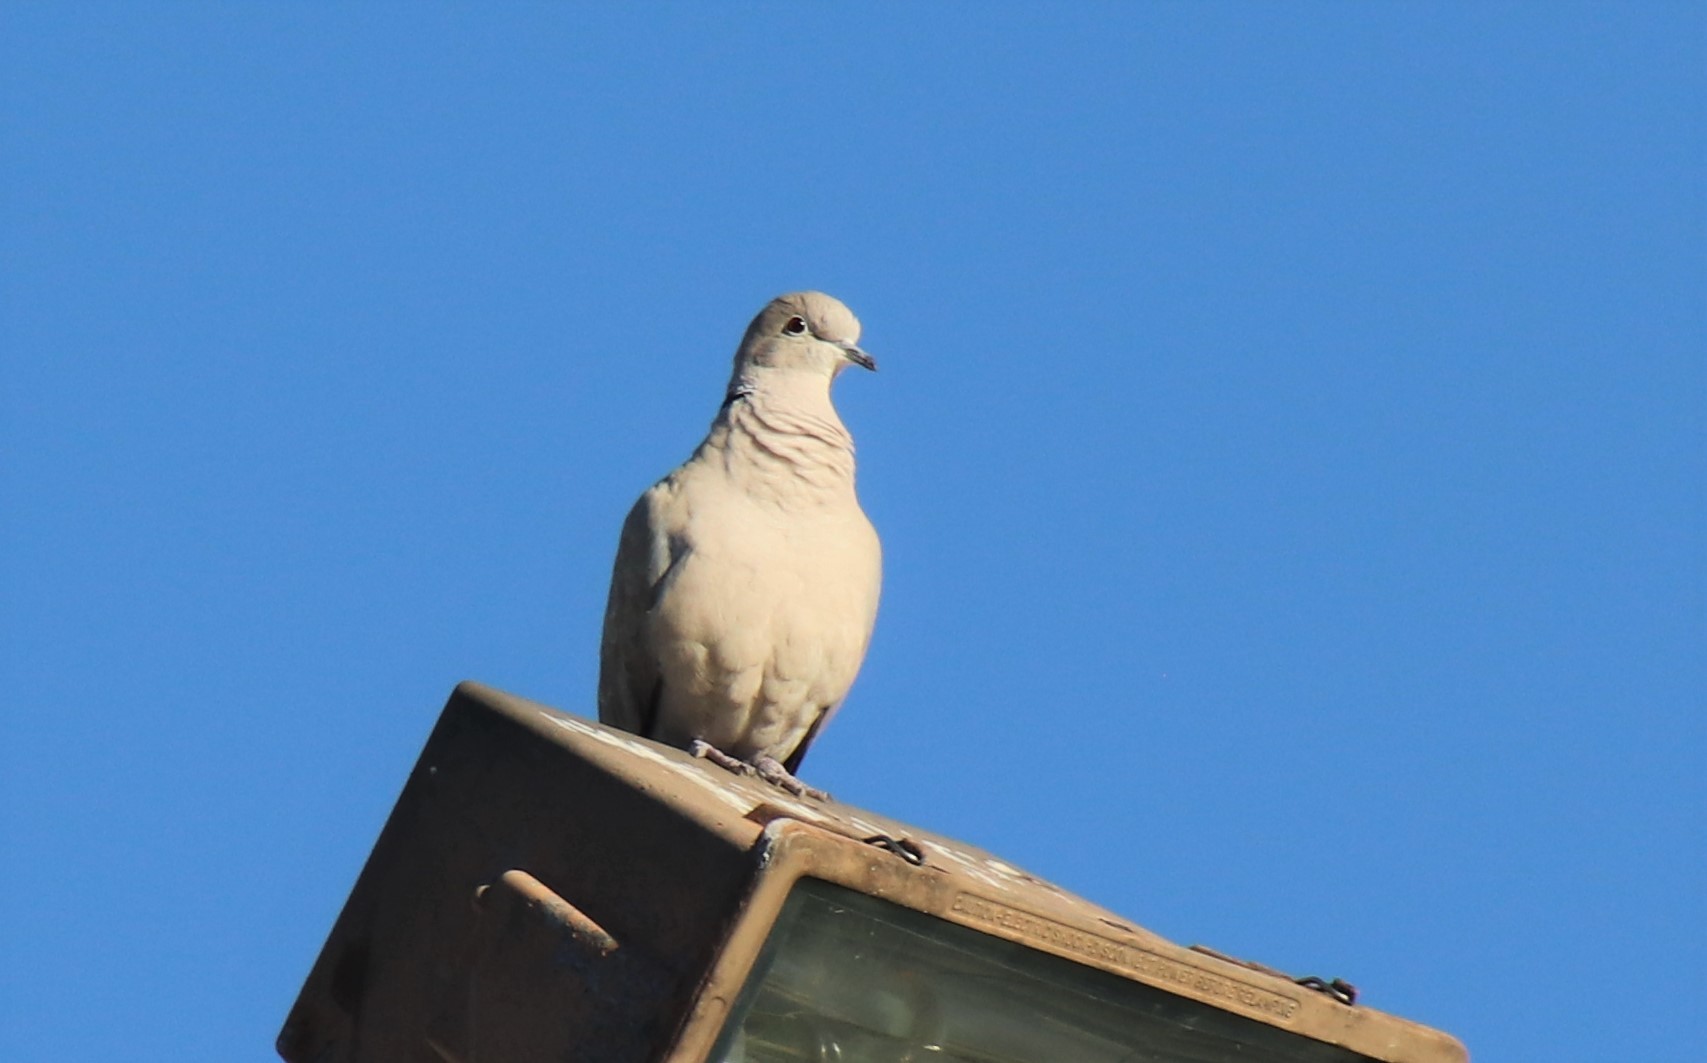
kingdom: Animalia
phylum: Chordata
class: Aves
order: Columbiformes
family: Columbidae
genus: Streptopelia
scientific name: Streptopelia decaocto
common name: Eurasian collared dove
